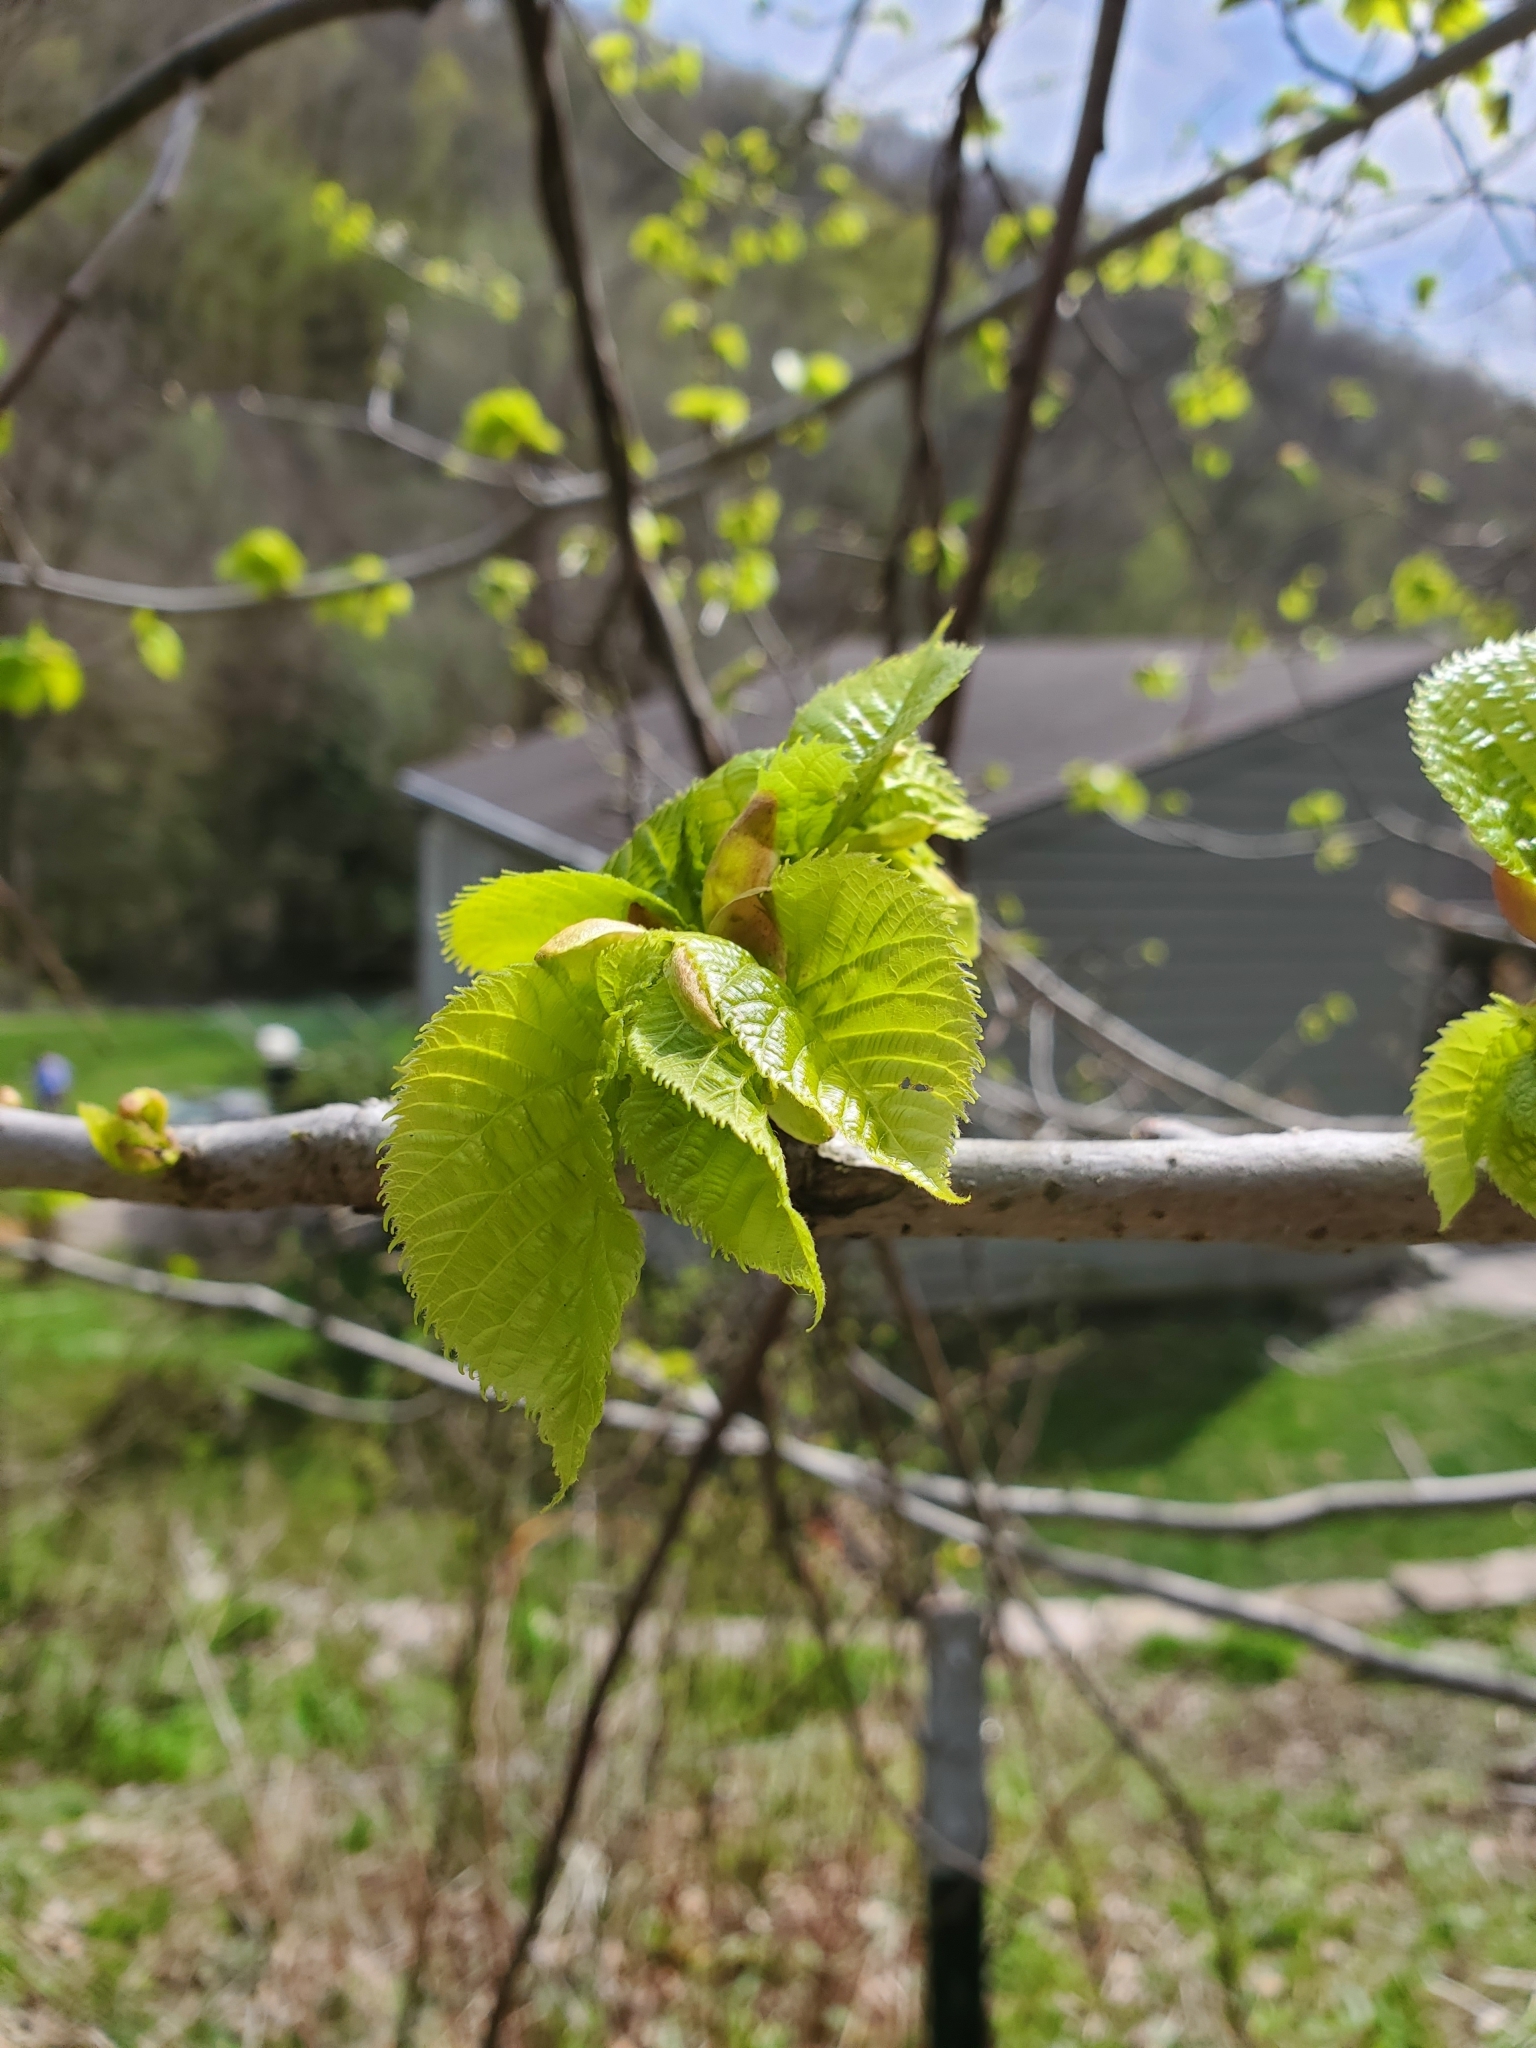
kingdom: Plantae
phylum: Tracheophyta
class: Magnoliopsida
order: Malvales
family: Malvaceae
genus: Tilia
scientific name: Tilia americana
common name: Basswood
